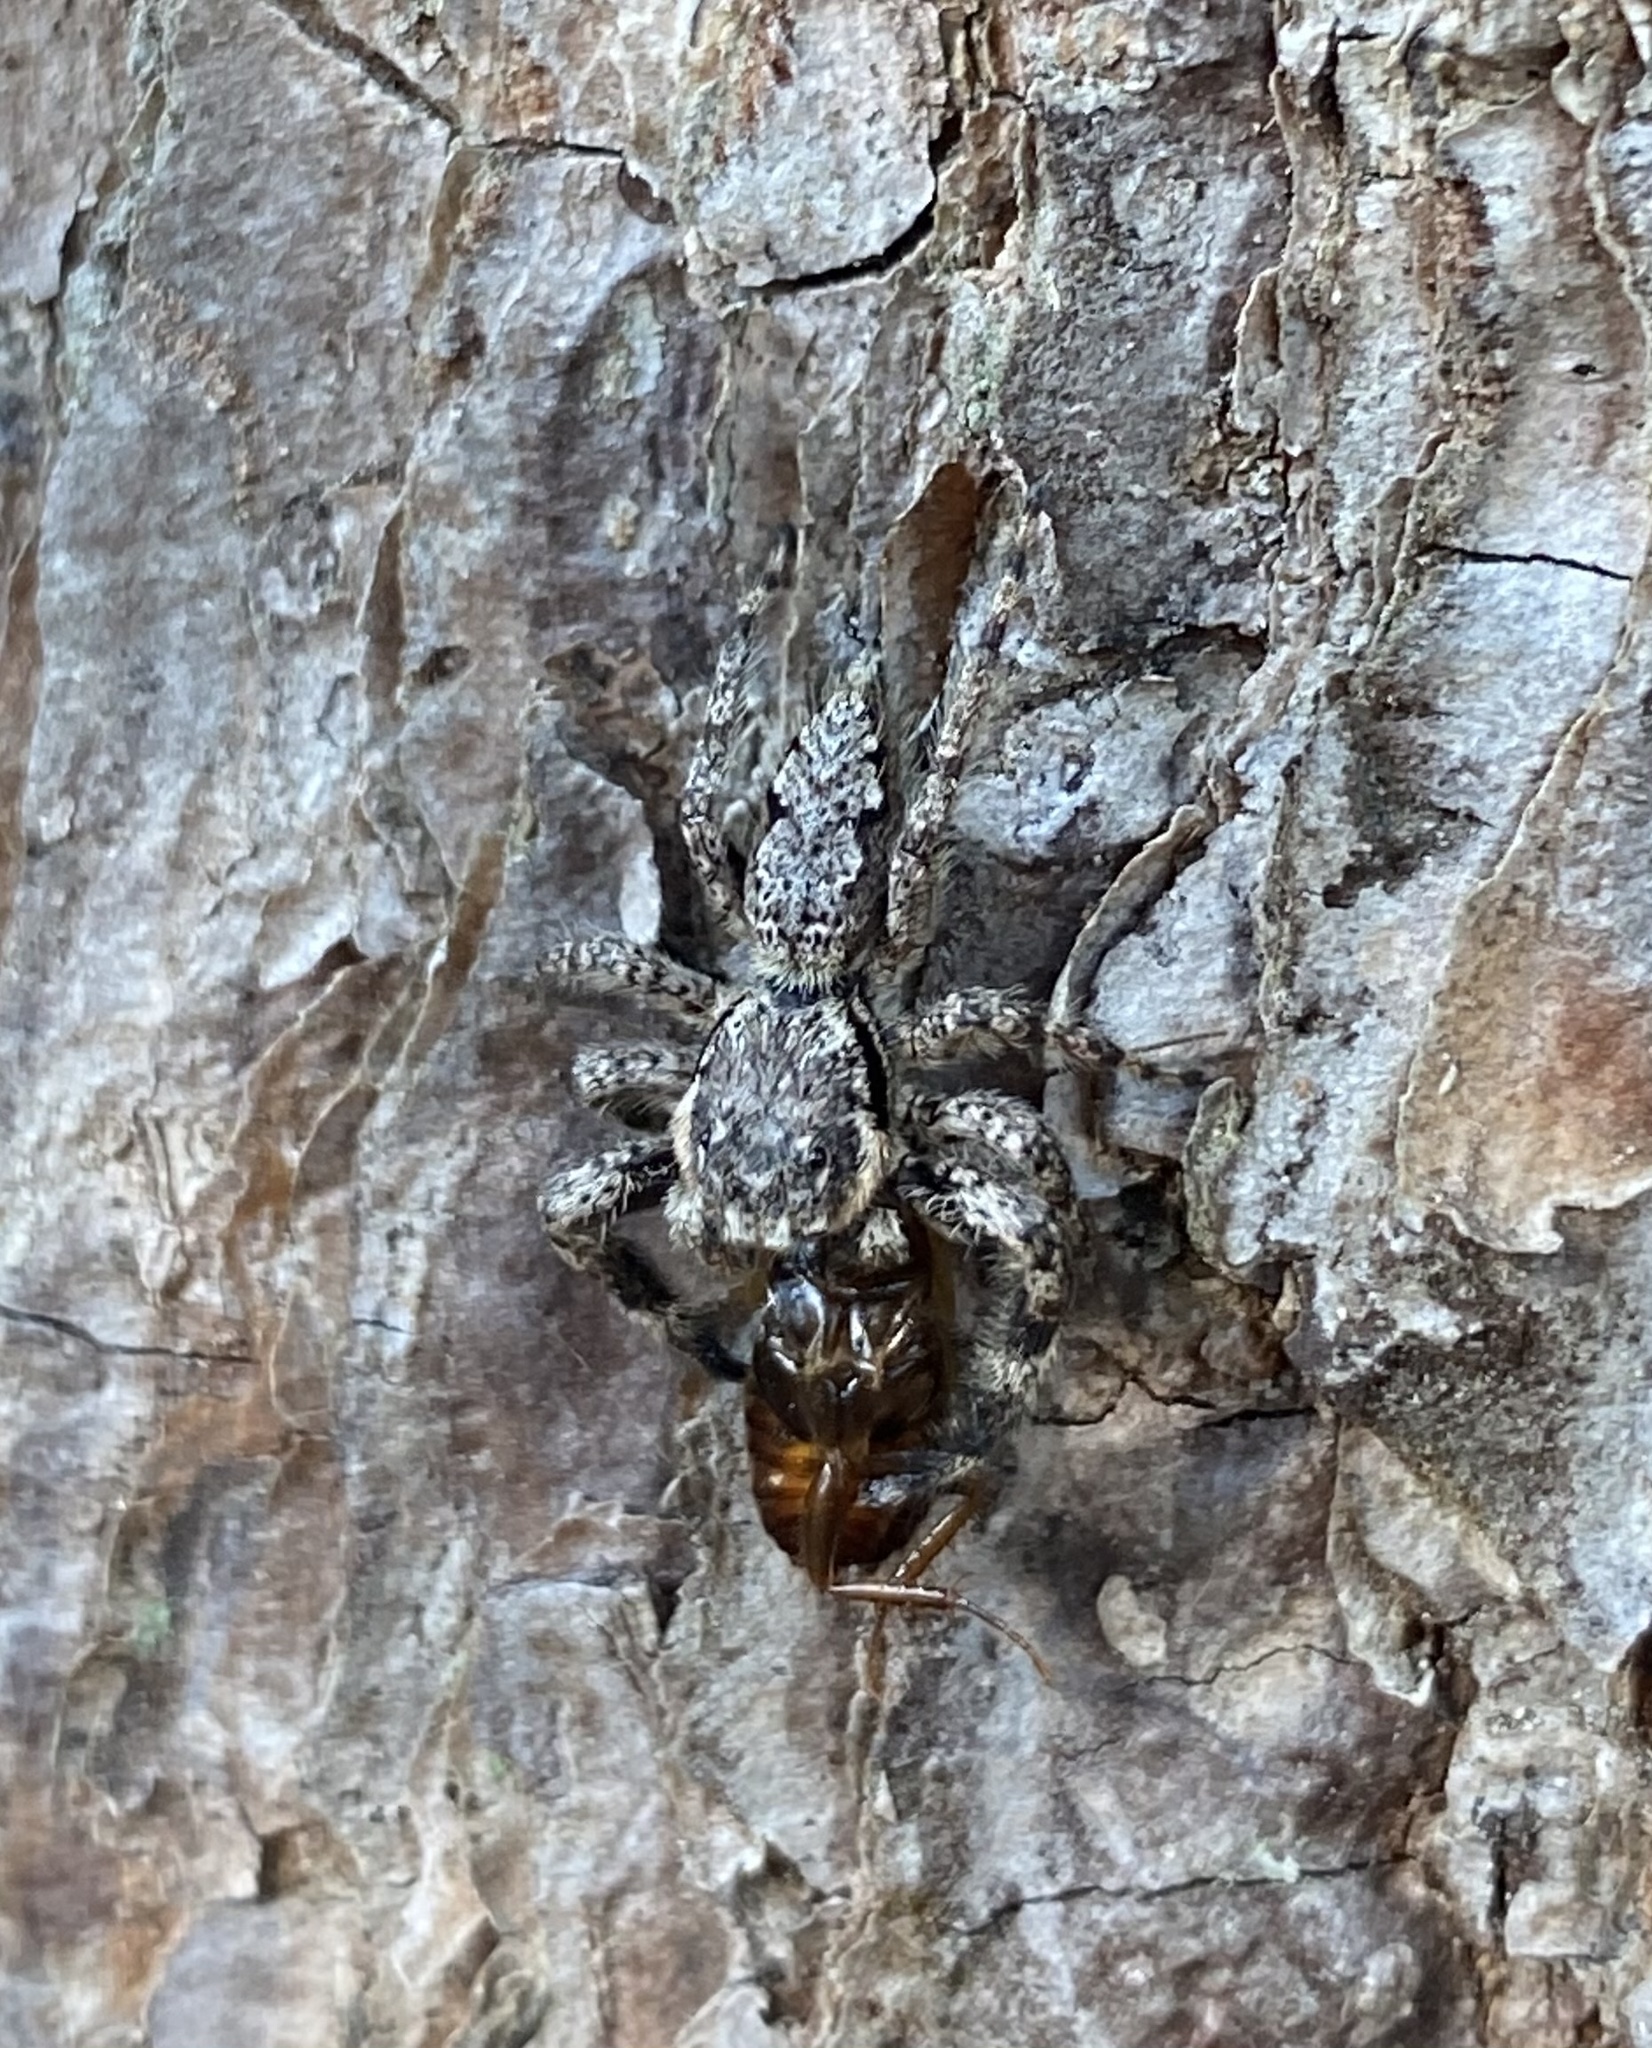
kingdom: Animalia
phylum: Arthropoda
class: Arachnida
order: Araneae
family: Salticidae
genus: Platycryptus
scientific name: Platycryptus undatus
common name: Tan jumping spider
